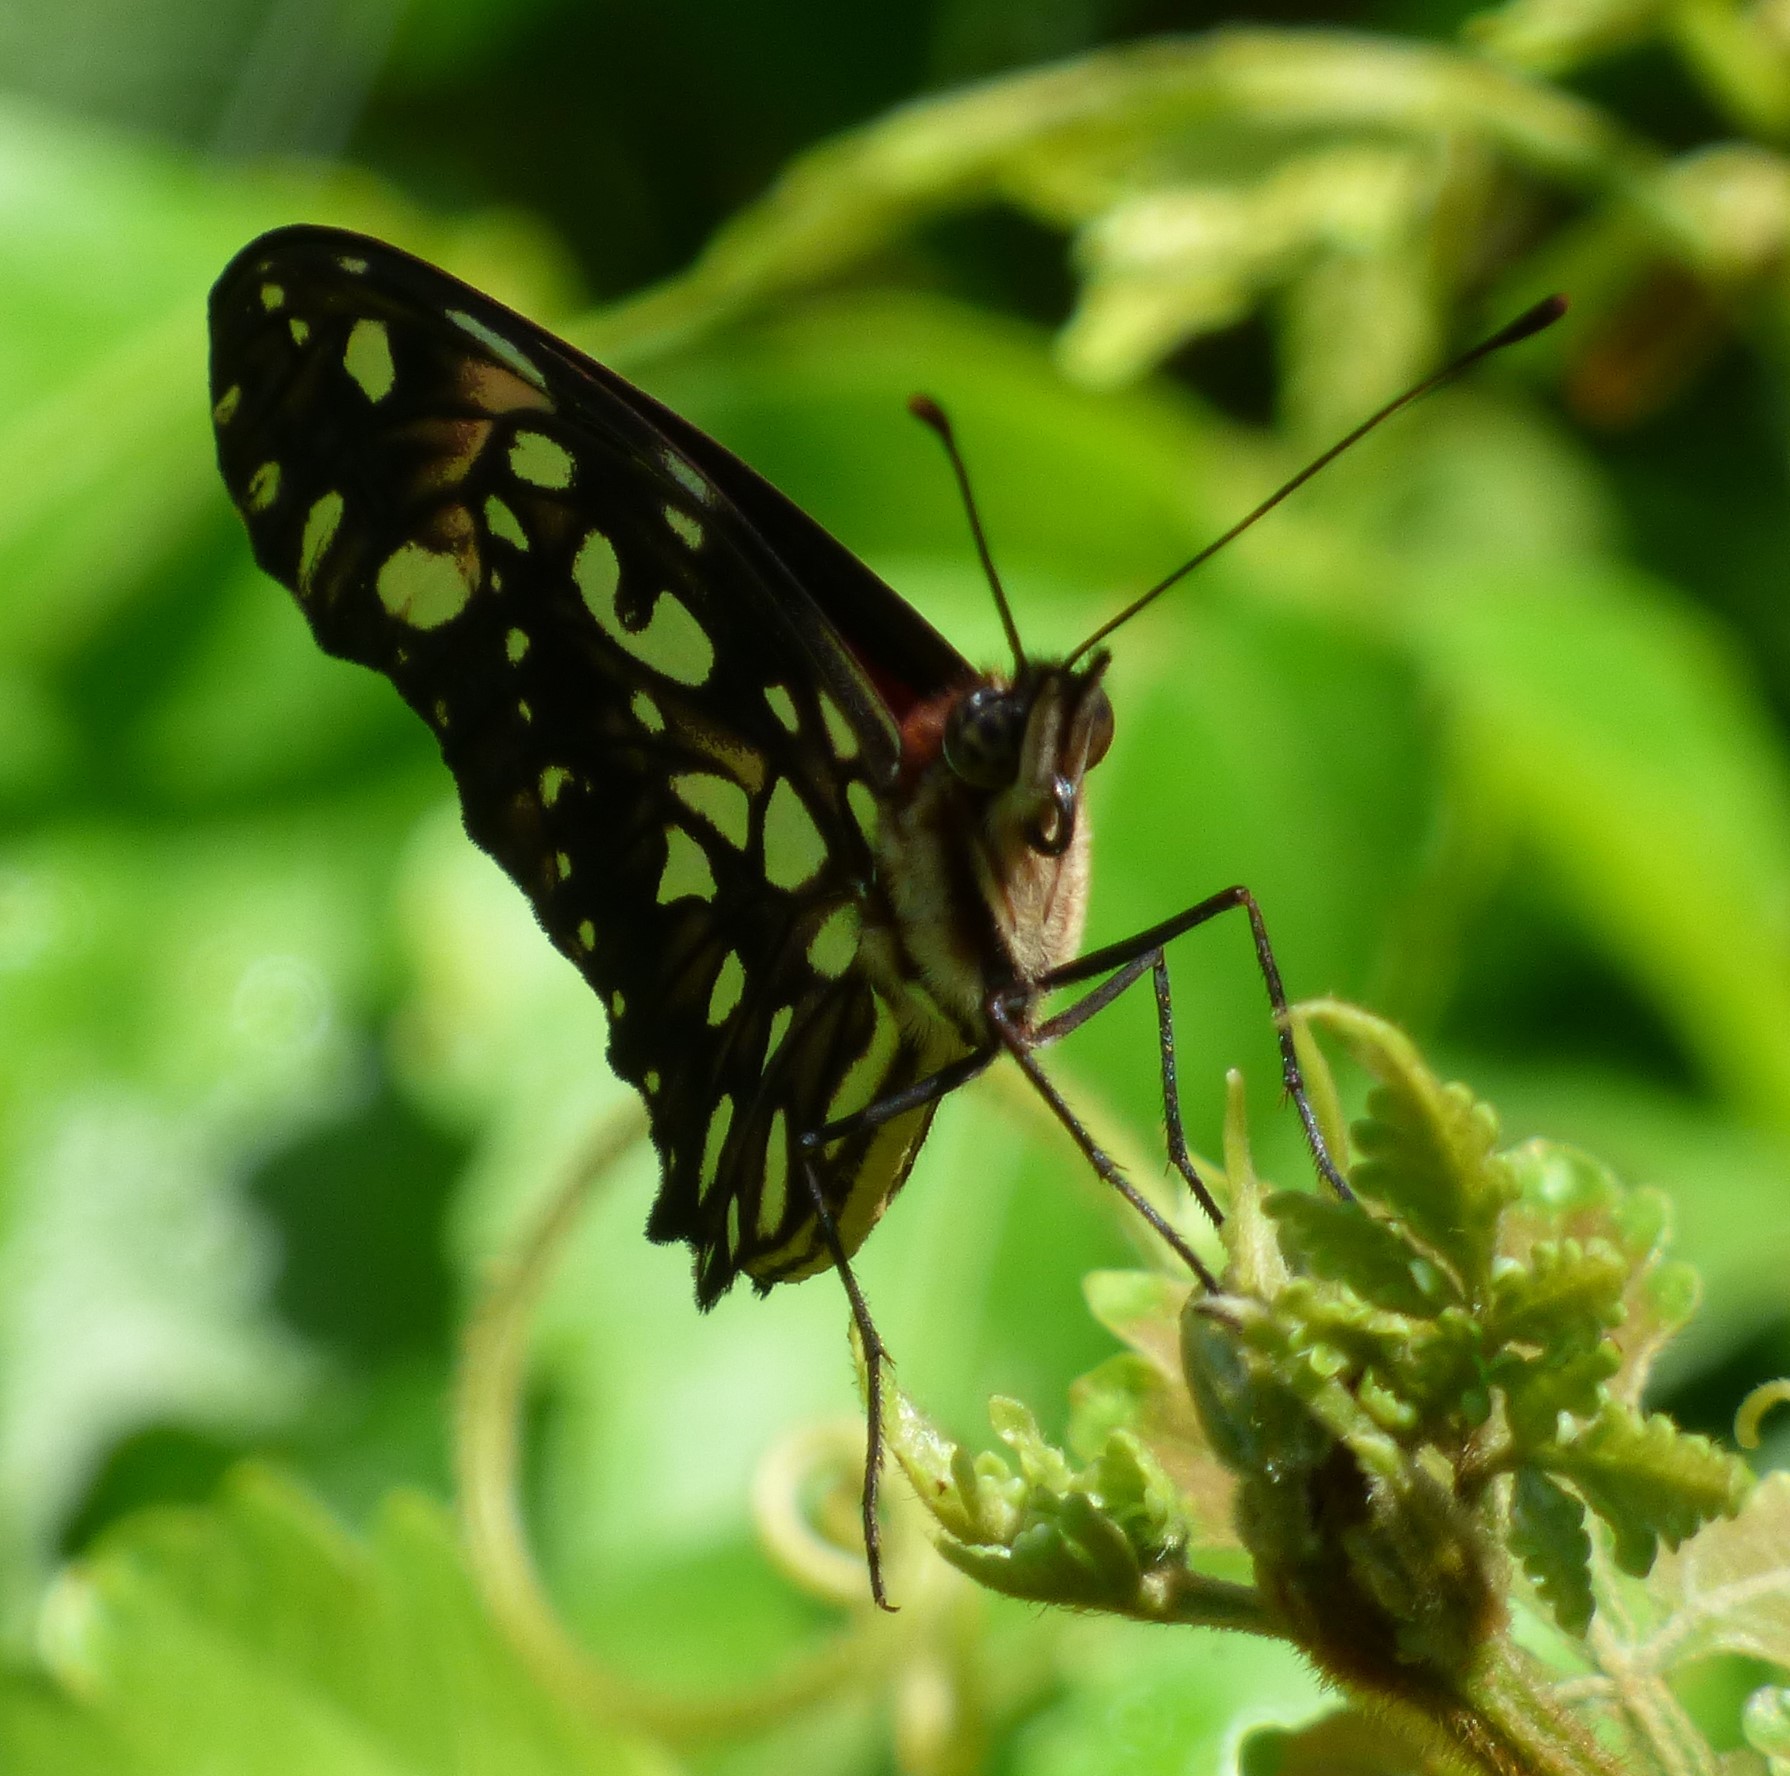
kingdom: Animalia
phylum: Arthropoda
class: Insecta
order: Lepidoptera
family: Nymphalidae
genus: Dione
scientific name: Dione juno
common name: Juno silverspot
